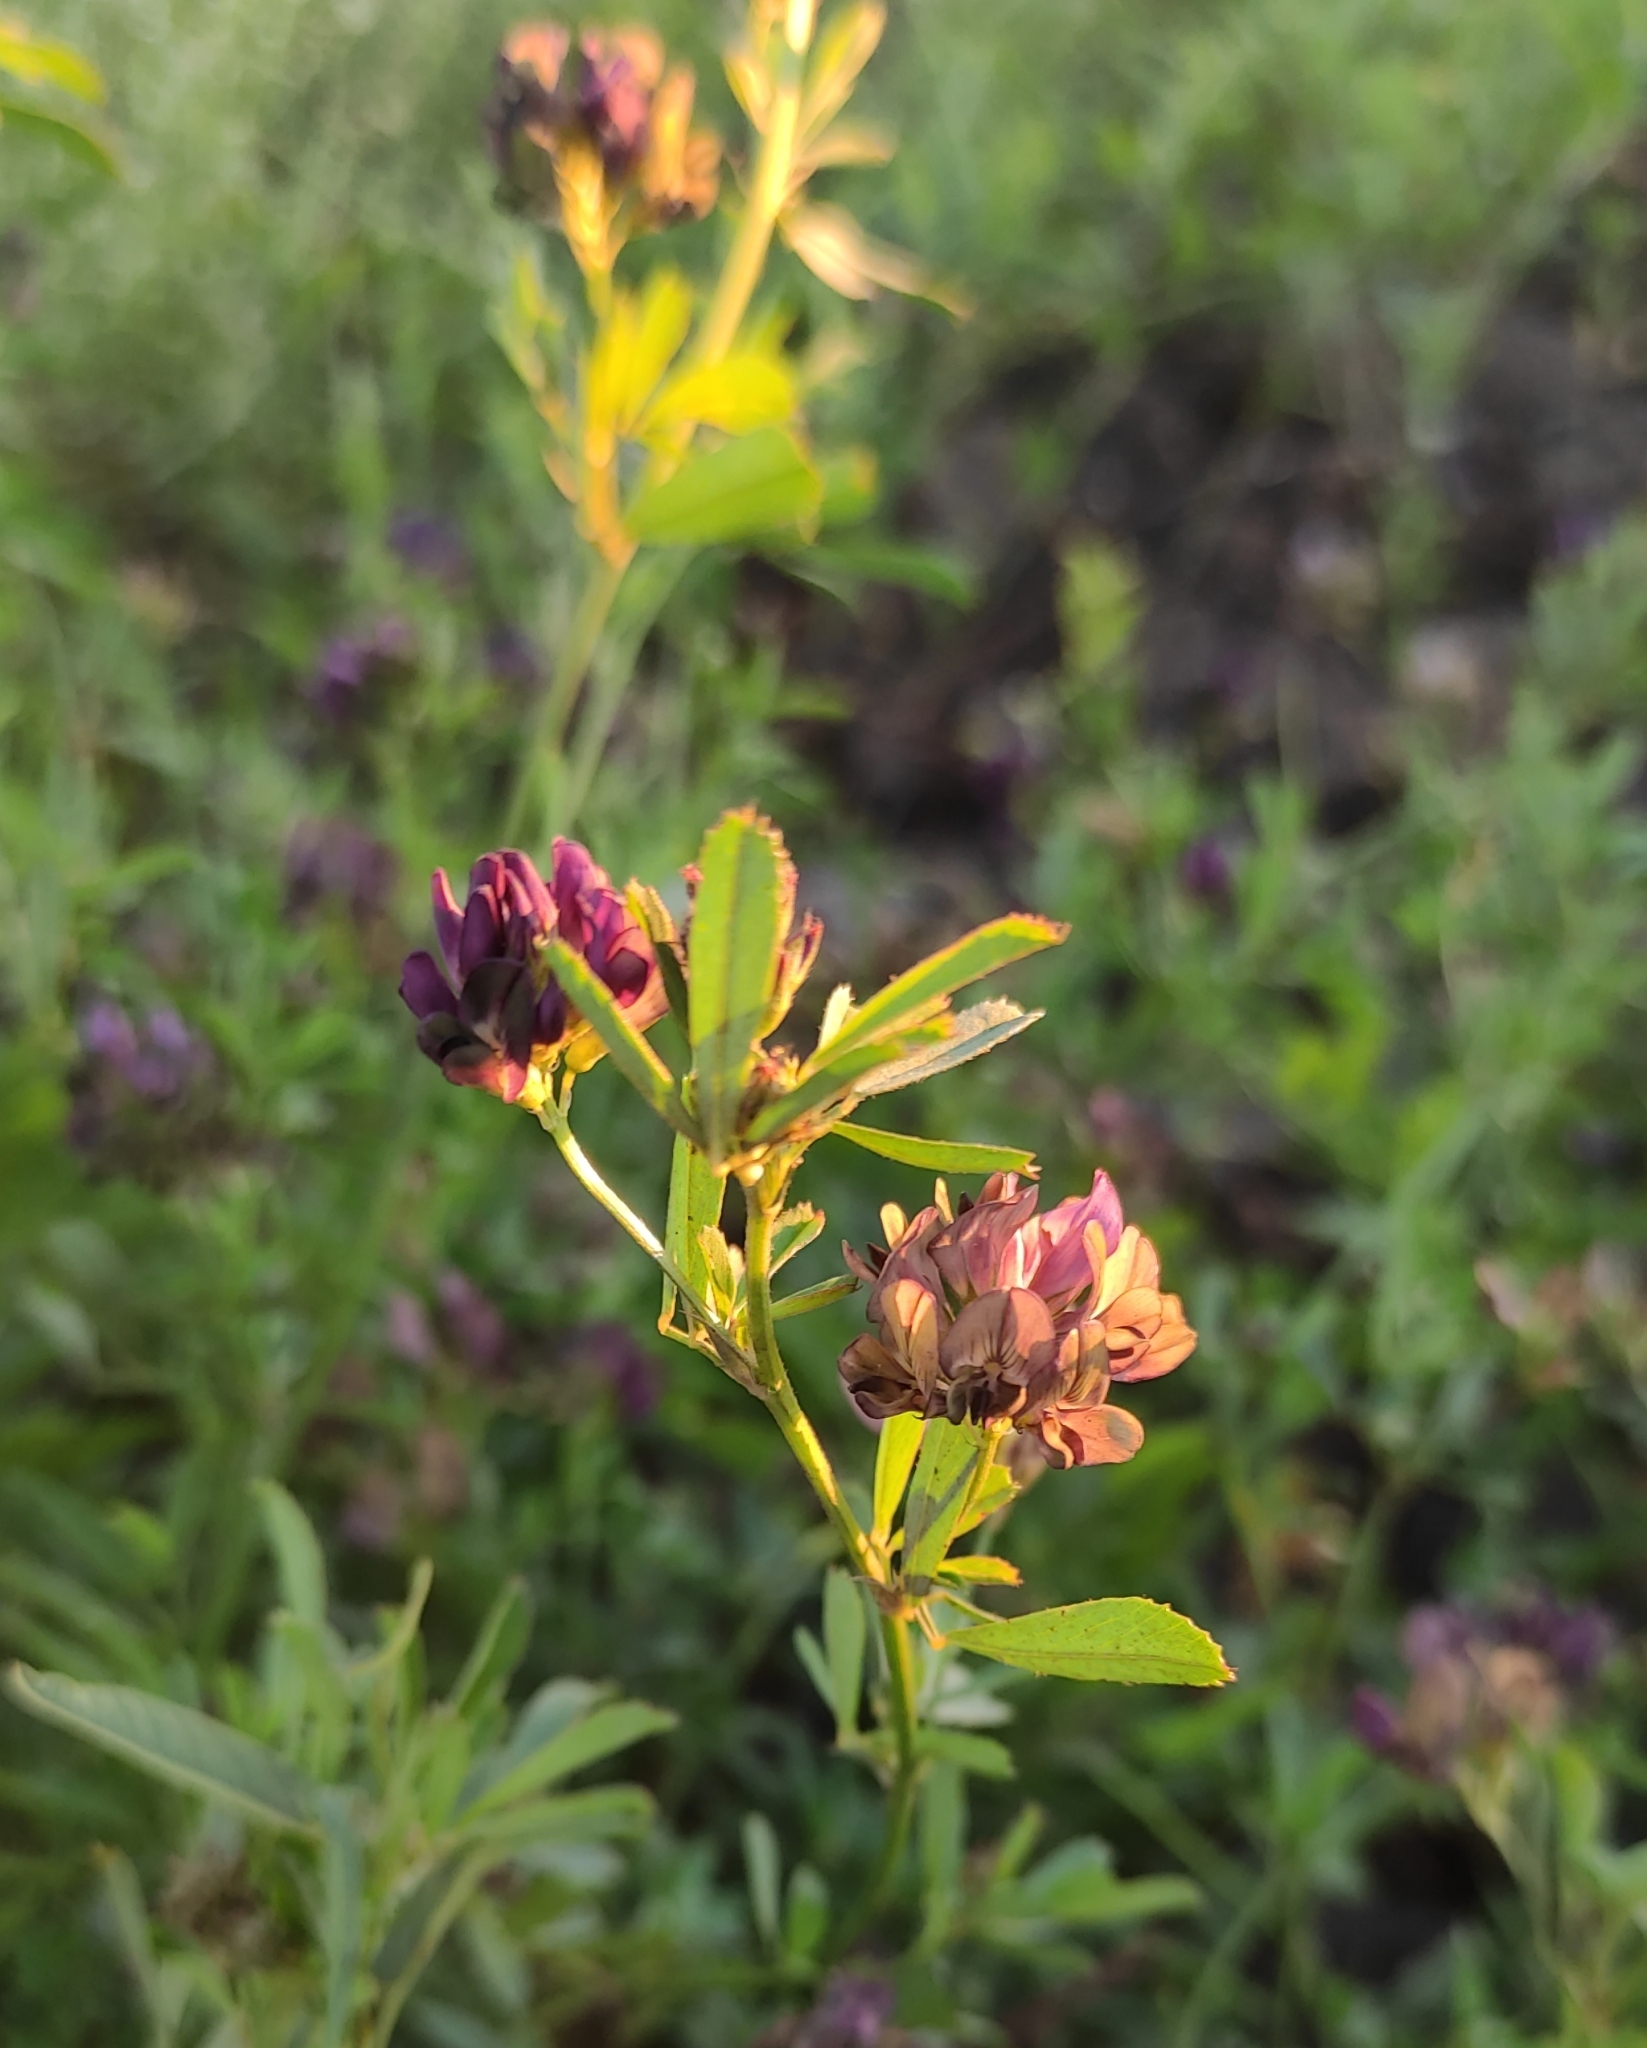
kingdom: Plantae
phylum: Tracheophyta
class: Magnoliopsida
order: Fabales
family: Fabaceae
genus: Medicago
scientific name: Medicago varia
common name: Sand lucerne
